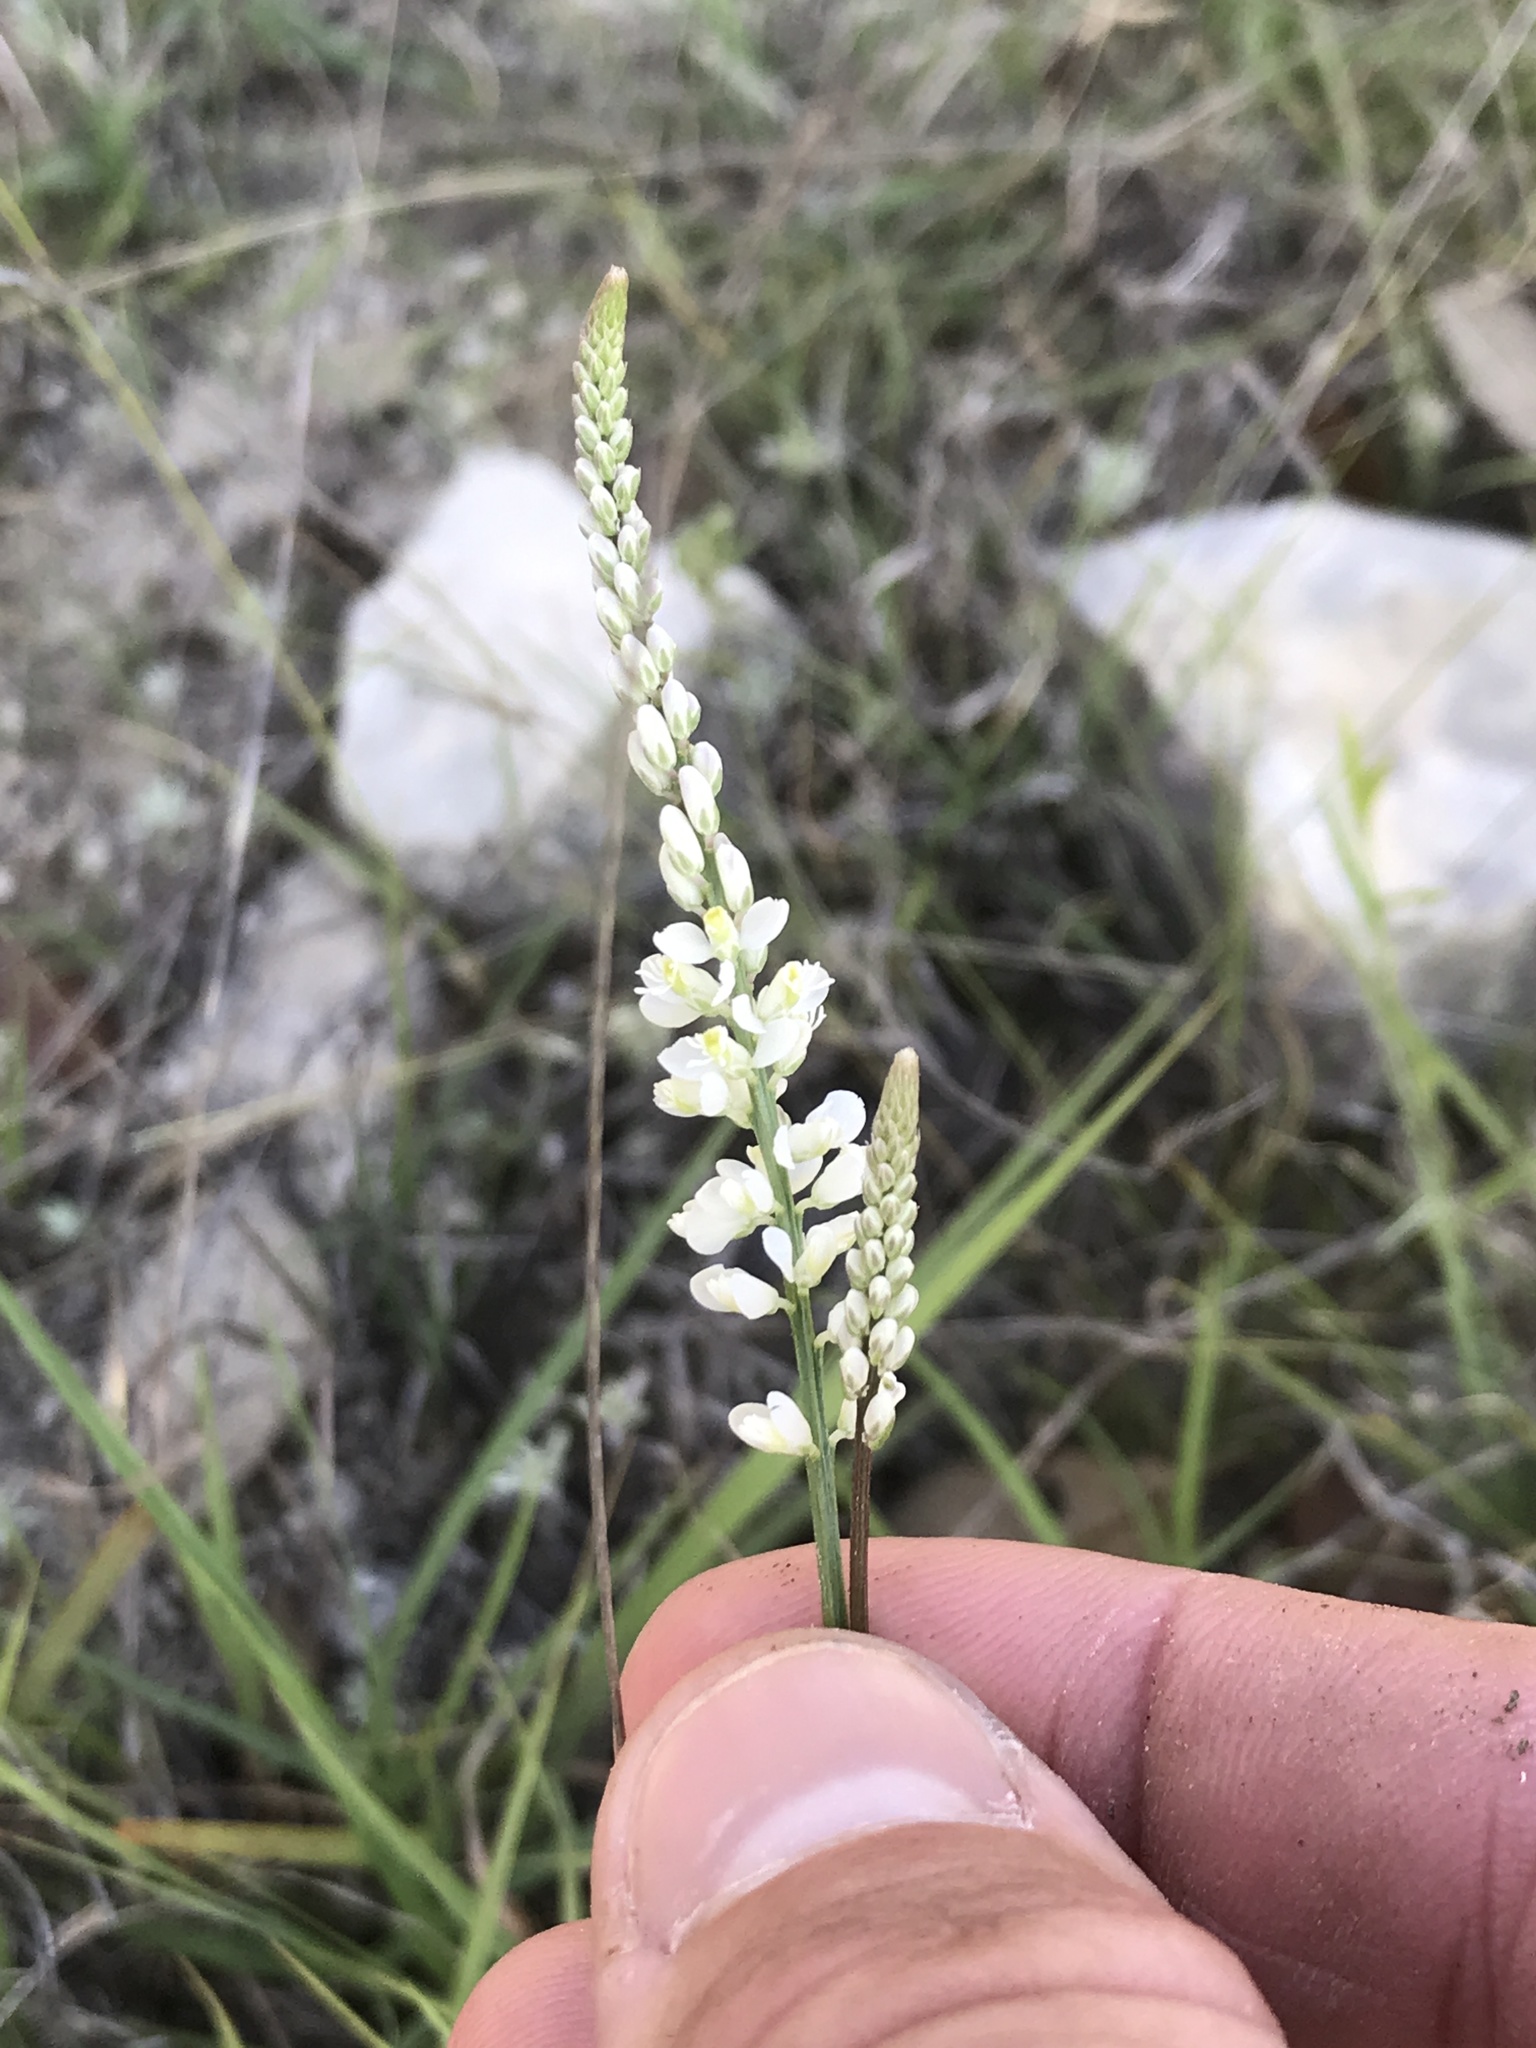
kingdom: Plantae
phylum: Tracheophyta
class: Magnoliopsida
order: Fabales
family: Polygalaceae
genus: Polygala
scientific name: Polygala alba
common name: White milkwort
